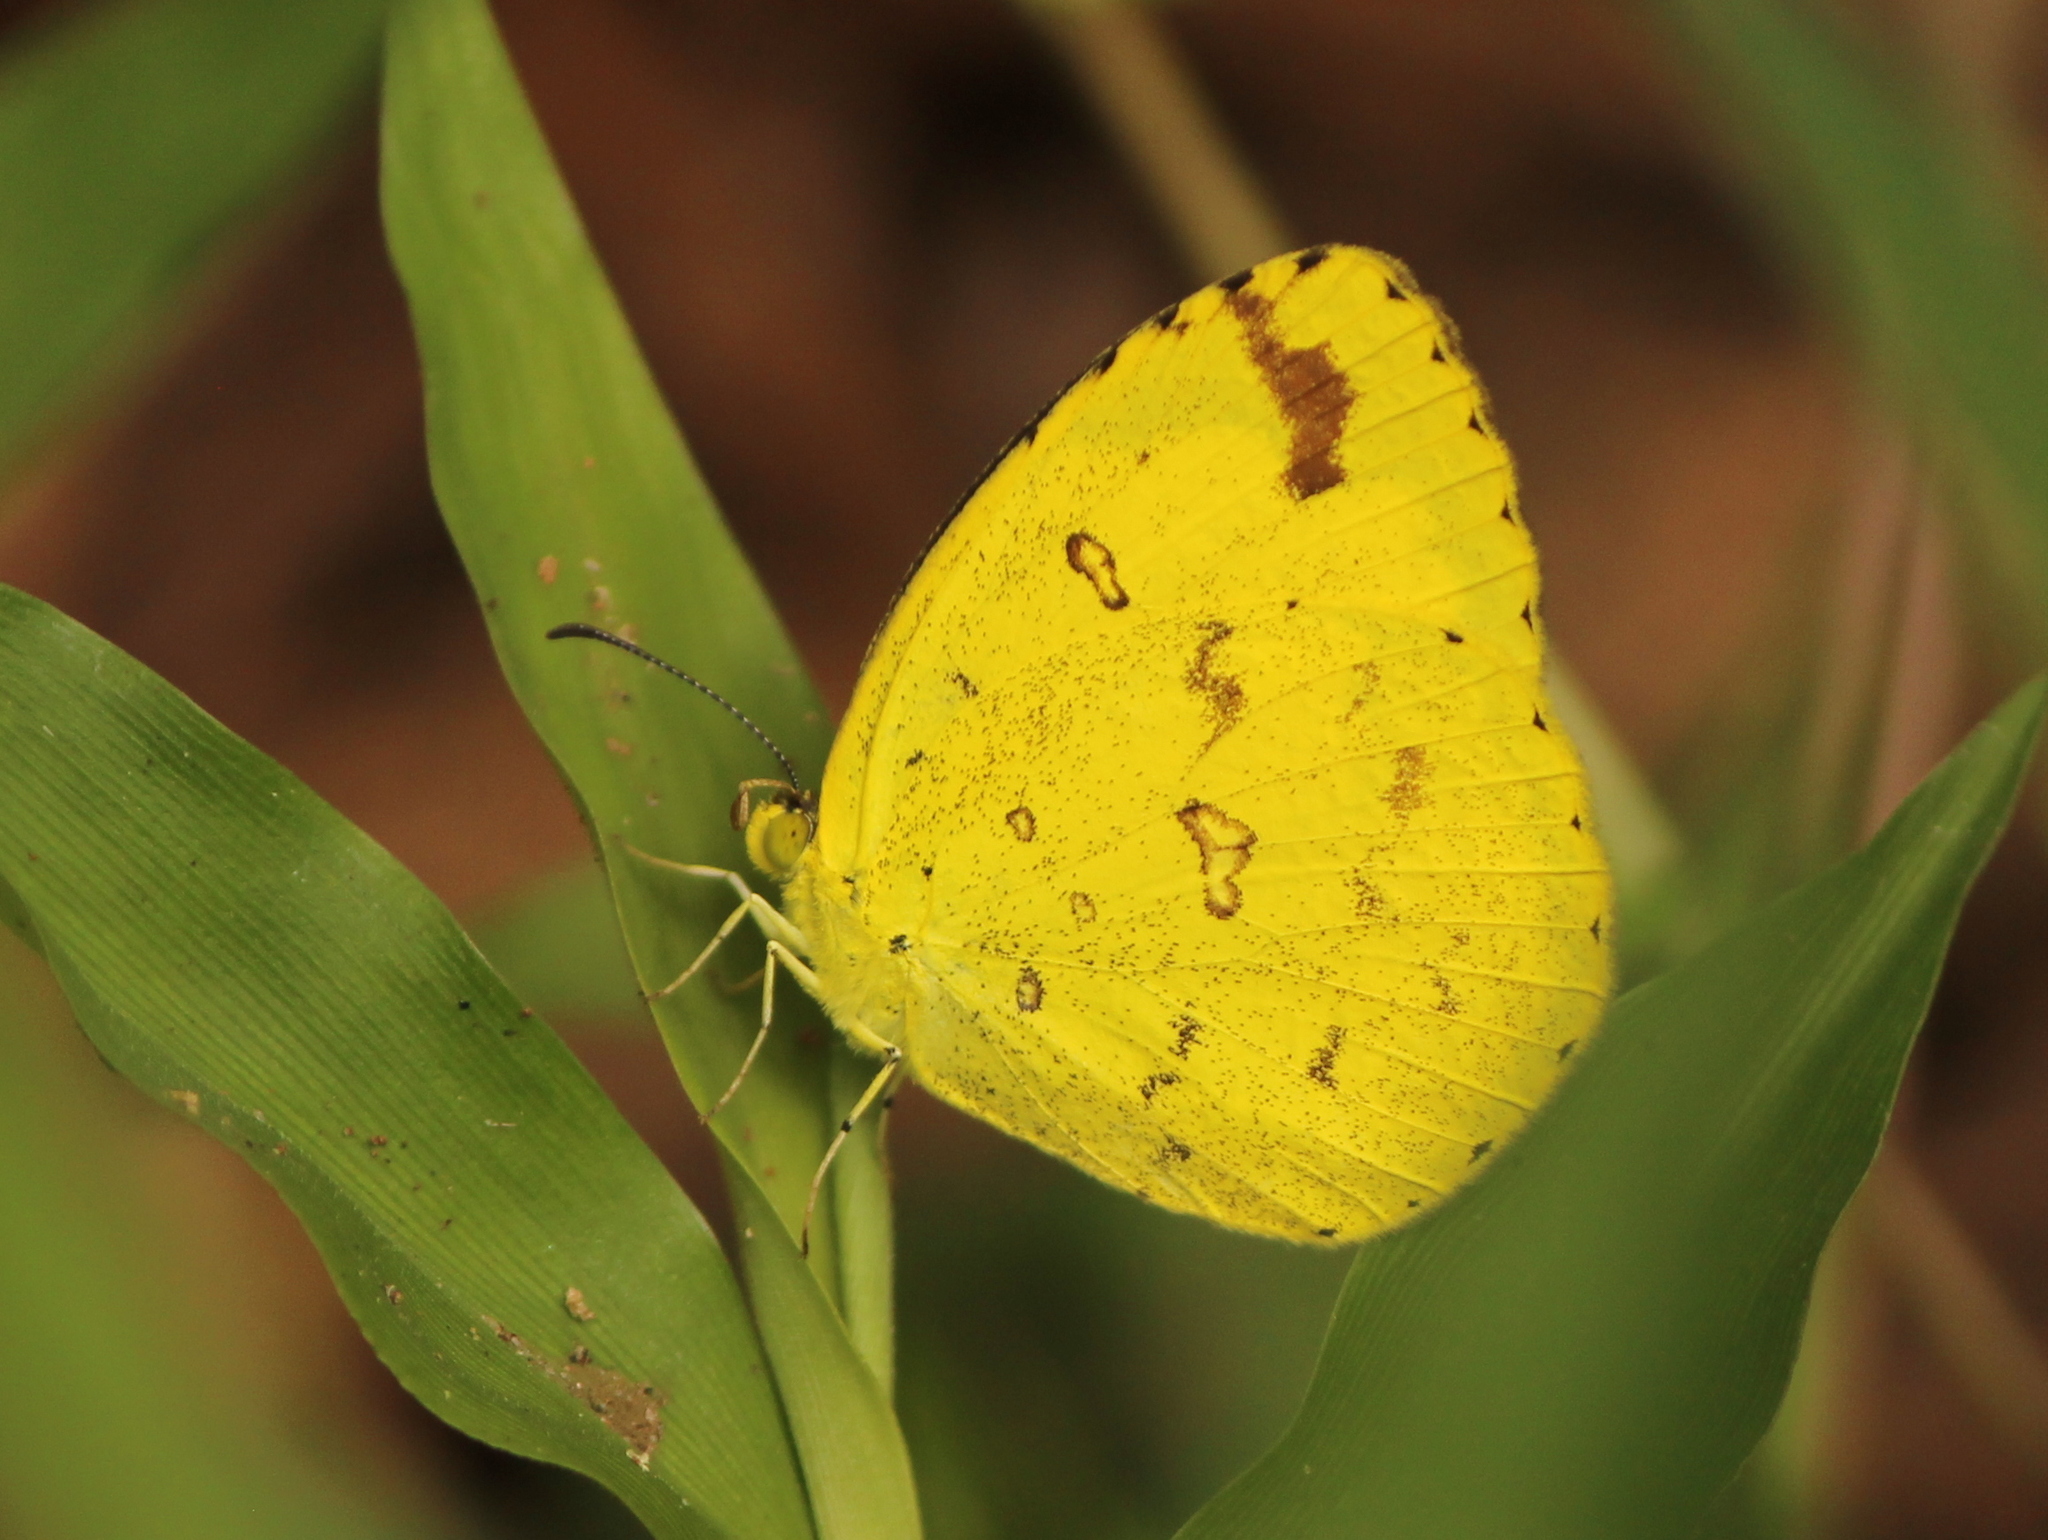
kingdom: Animalia
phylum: Arthropoda
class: Insecta
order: Lepidoptera
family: Pieridae
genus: Eurema
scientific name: Eurema hecabe
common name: Pale grass yellow
